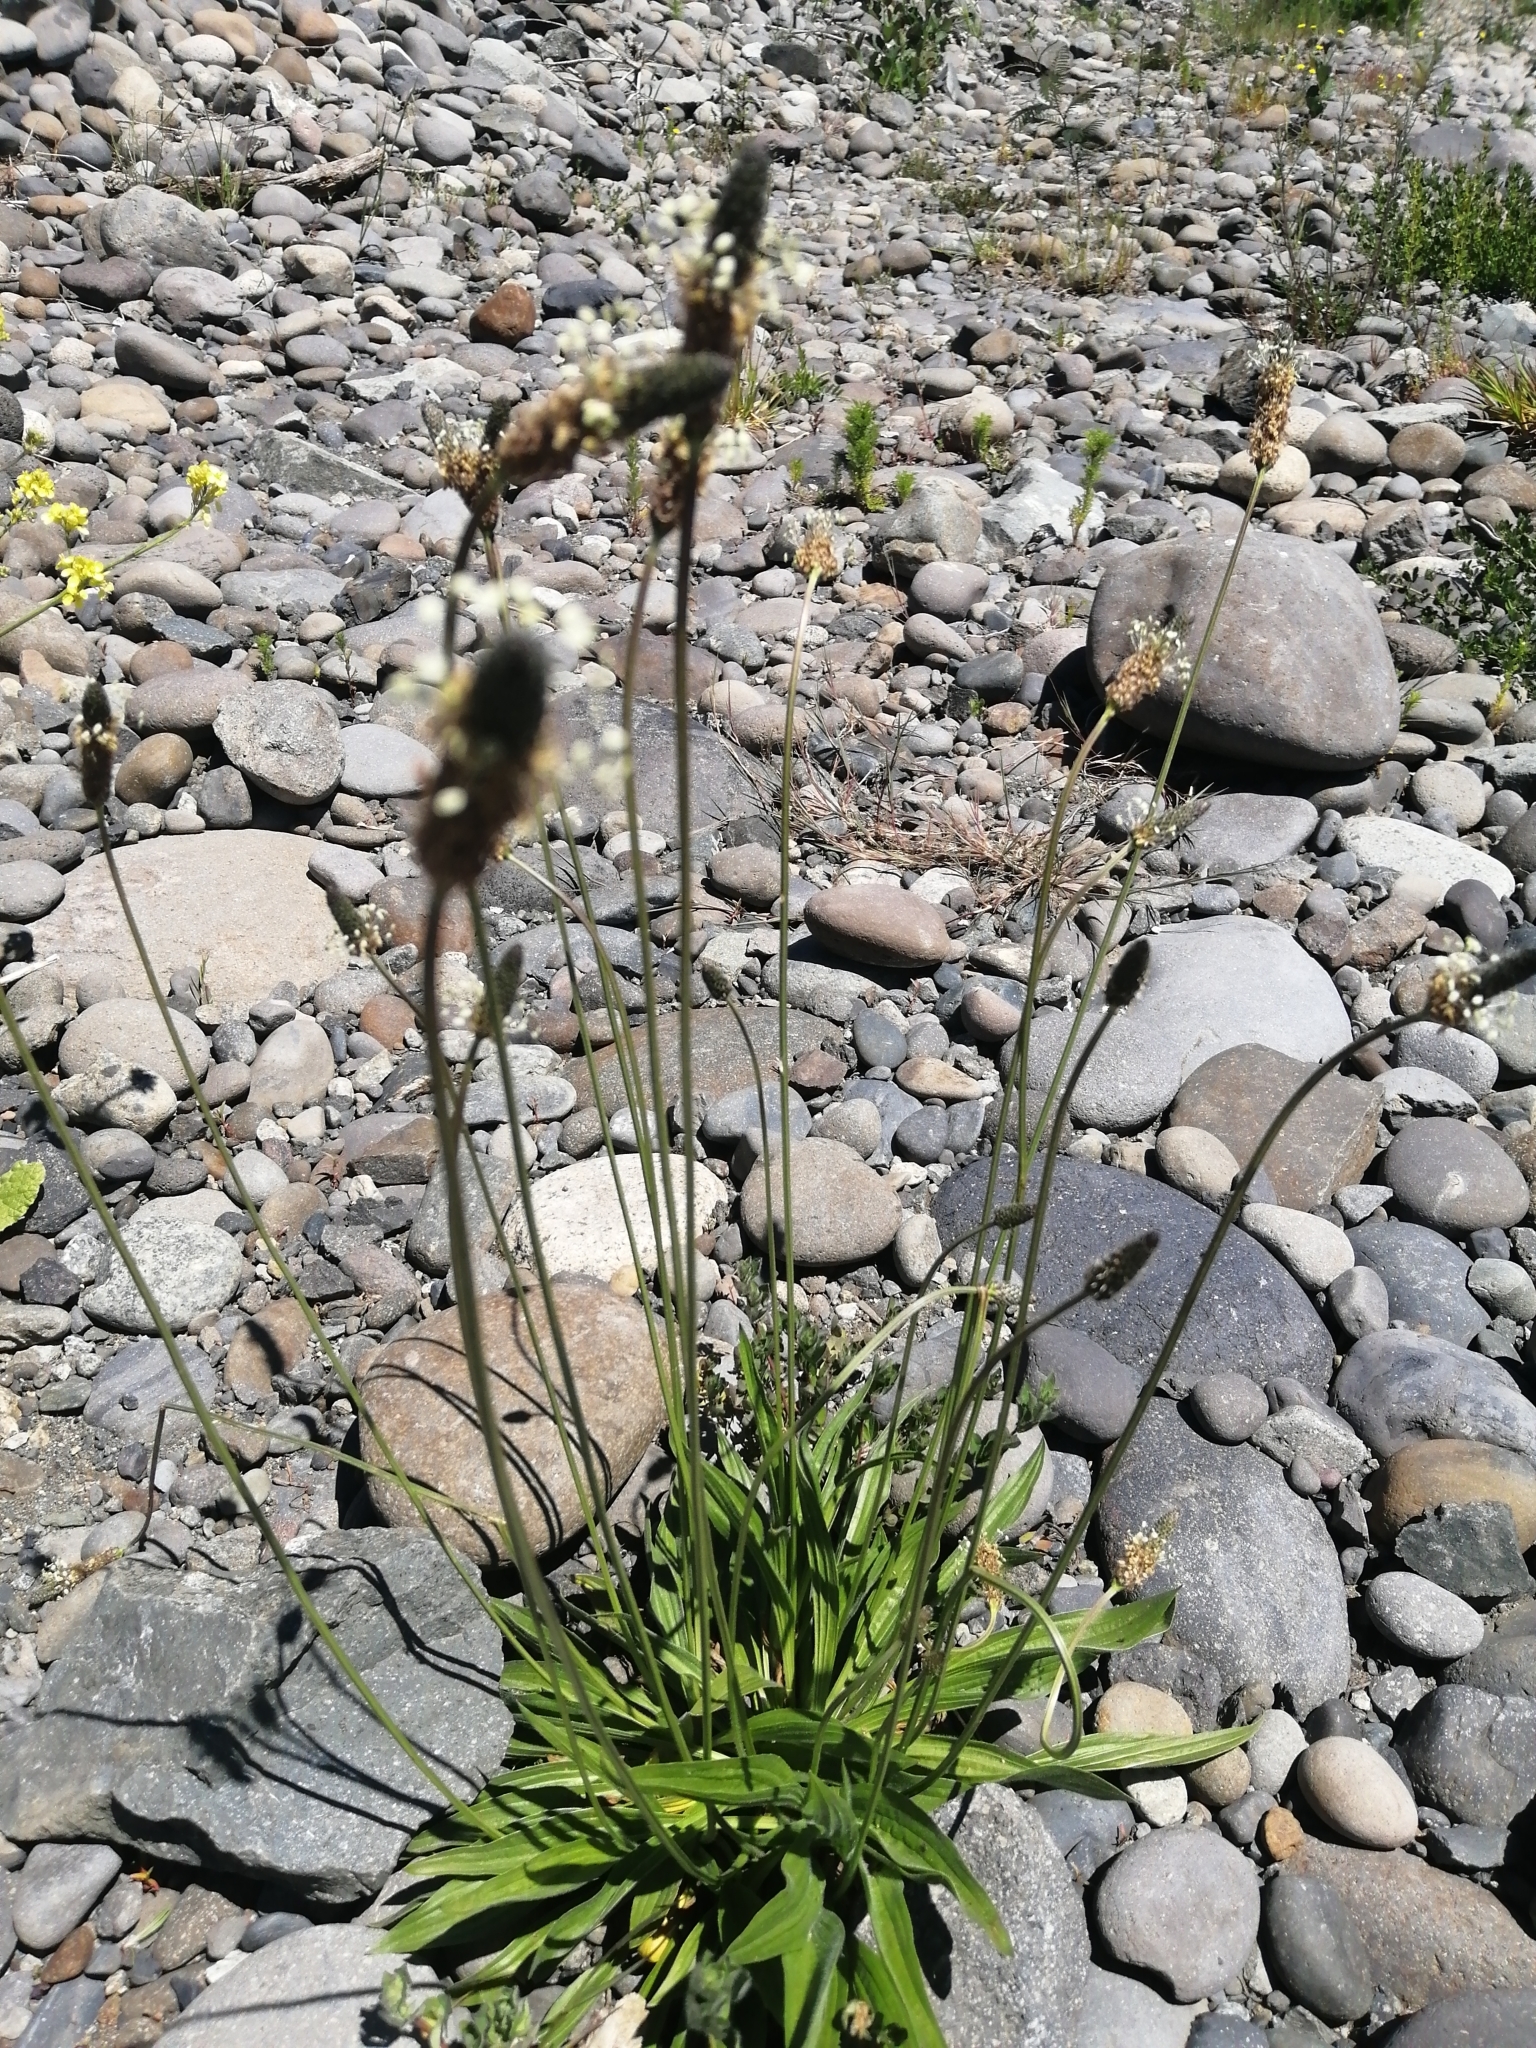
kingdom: Plantae
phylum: Tracheophyta
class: Magnoliopsida
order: Lamiales
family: Plantaginaceae
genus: Plantago
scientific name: Plantago lanceolata
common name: Ribwort plantain
